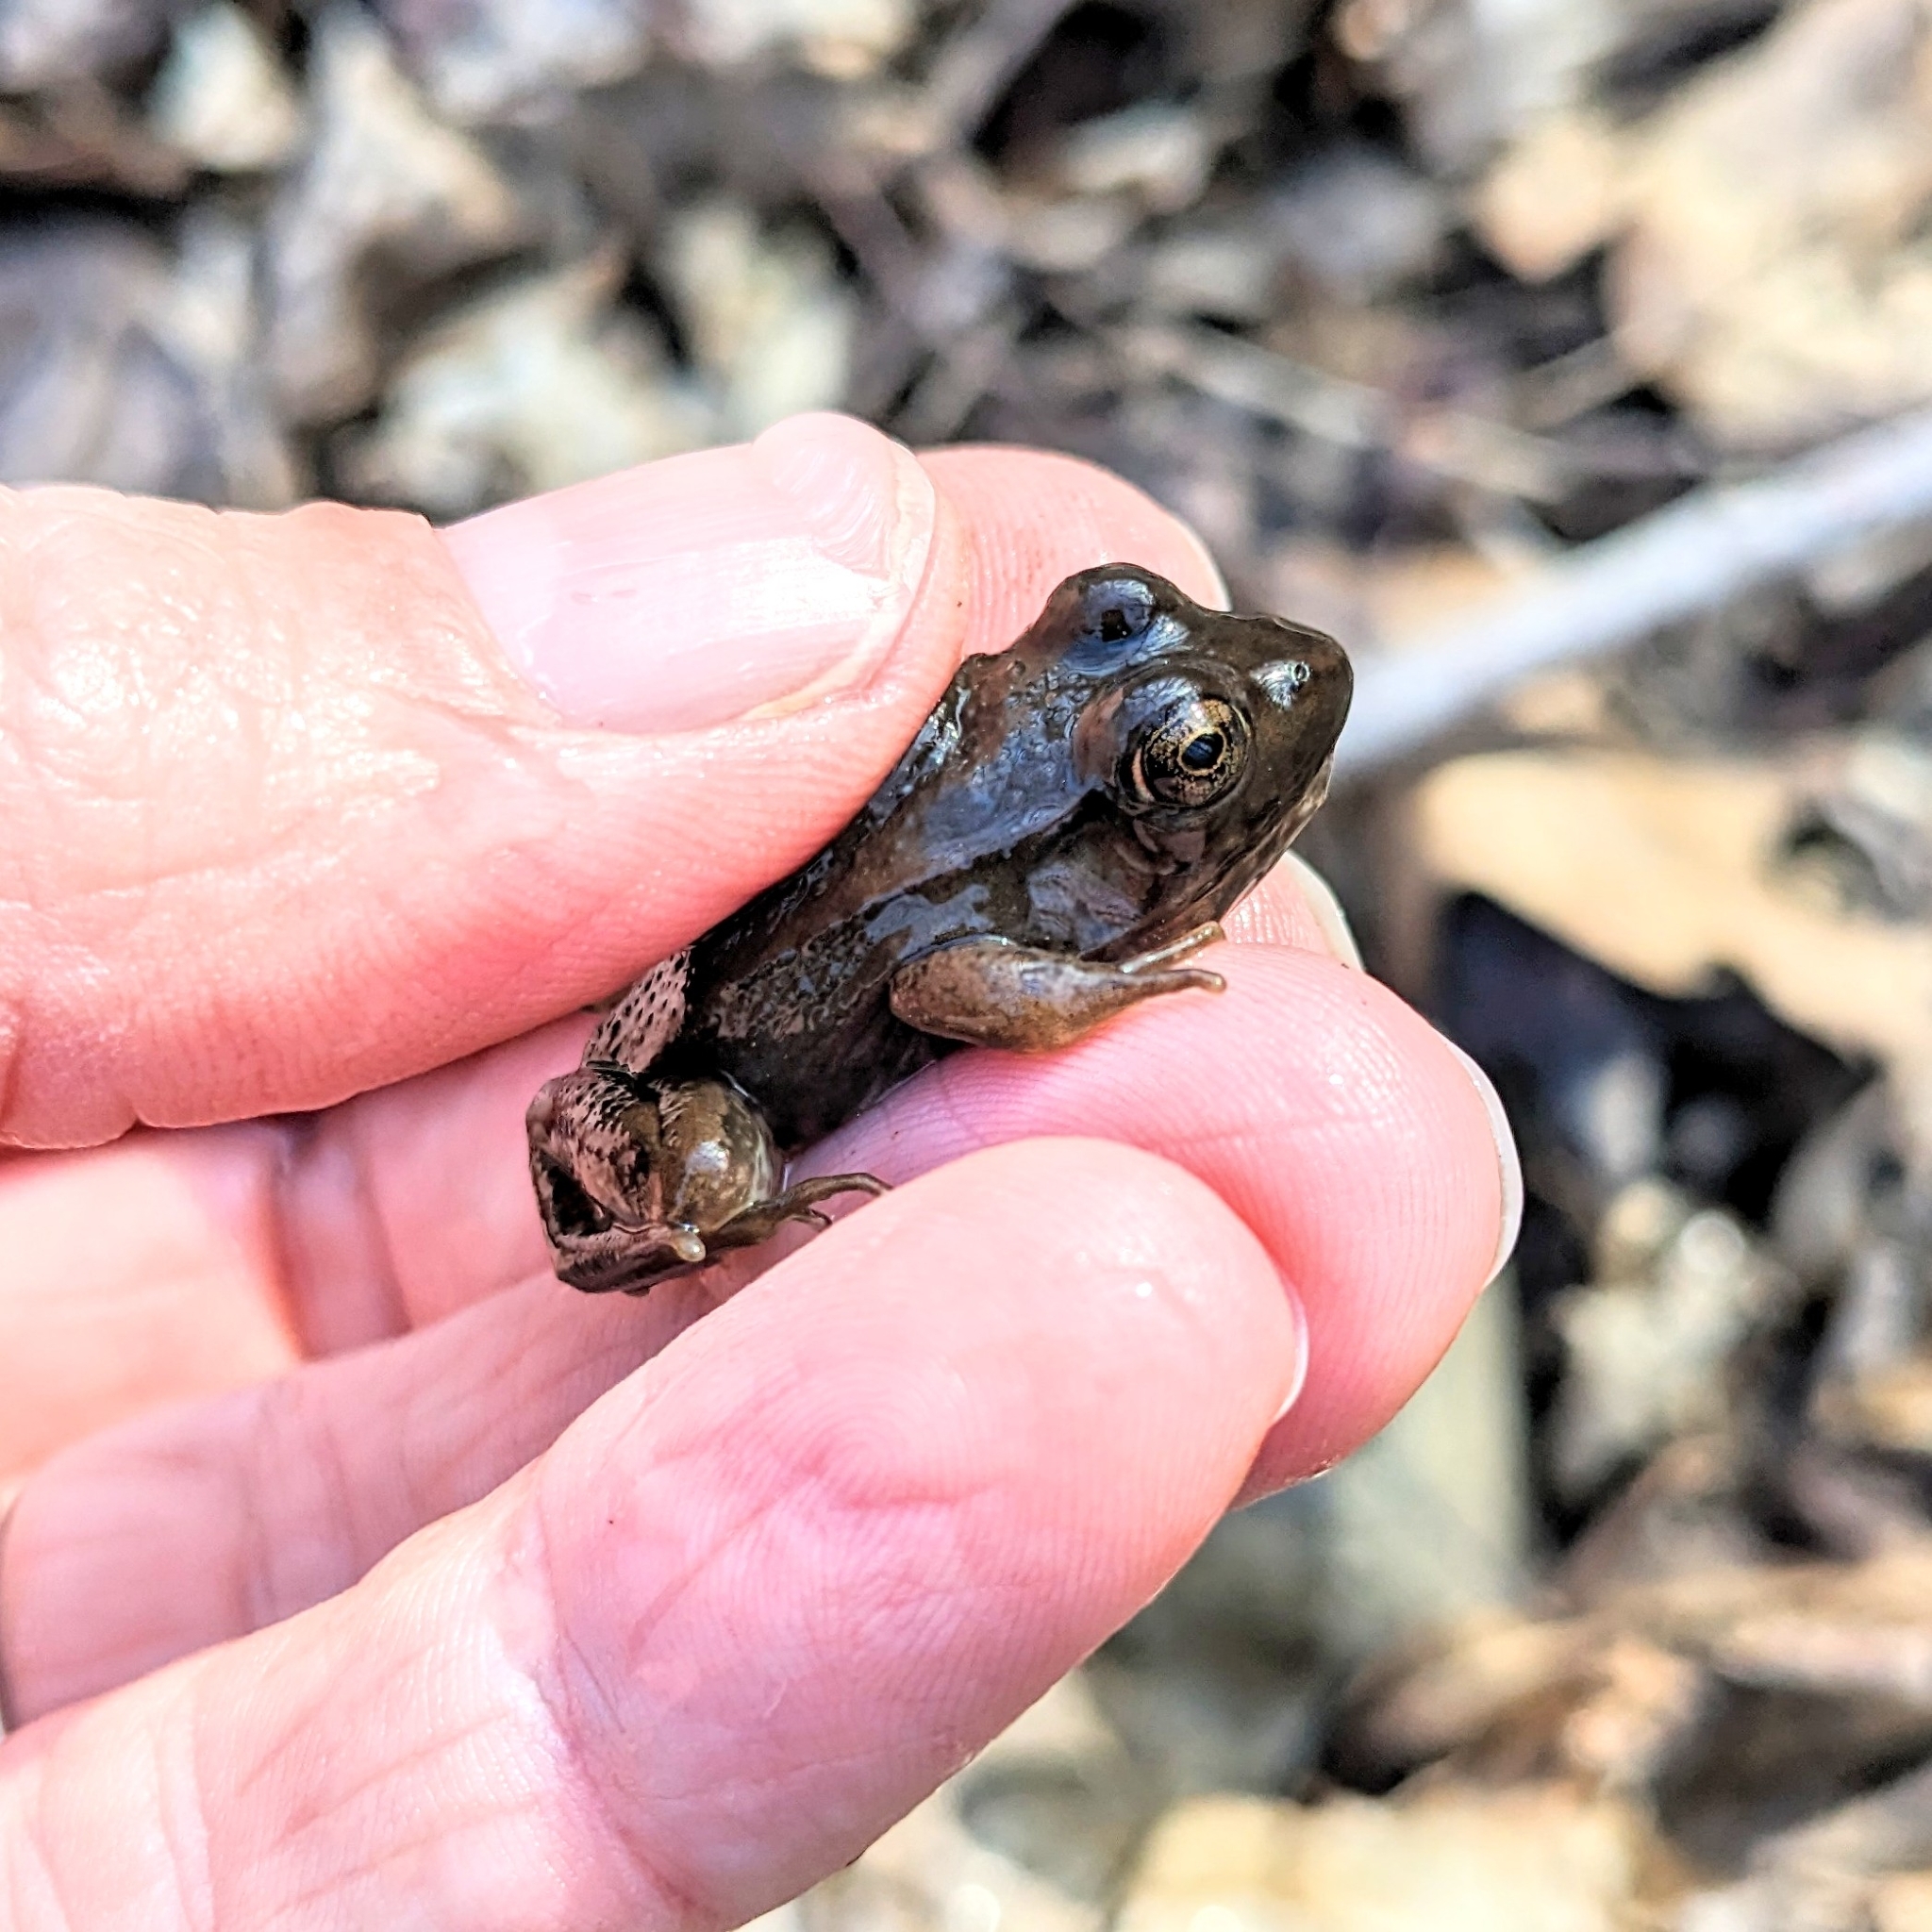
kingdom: Animalia
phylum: Chordata
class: Amphibia
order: Anura
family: Ranidae
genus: Lithobates
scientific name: Lithobates clamitans
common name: Green frog
